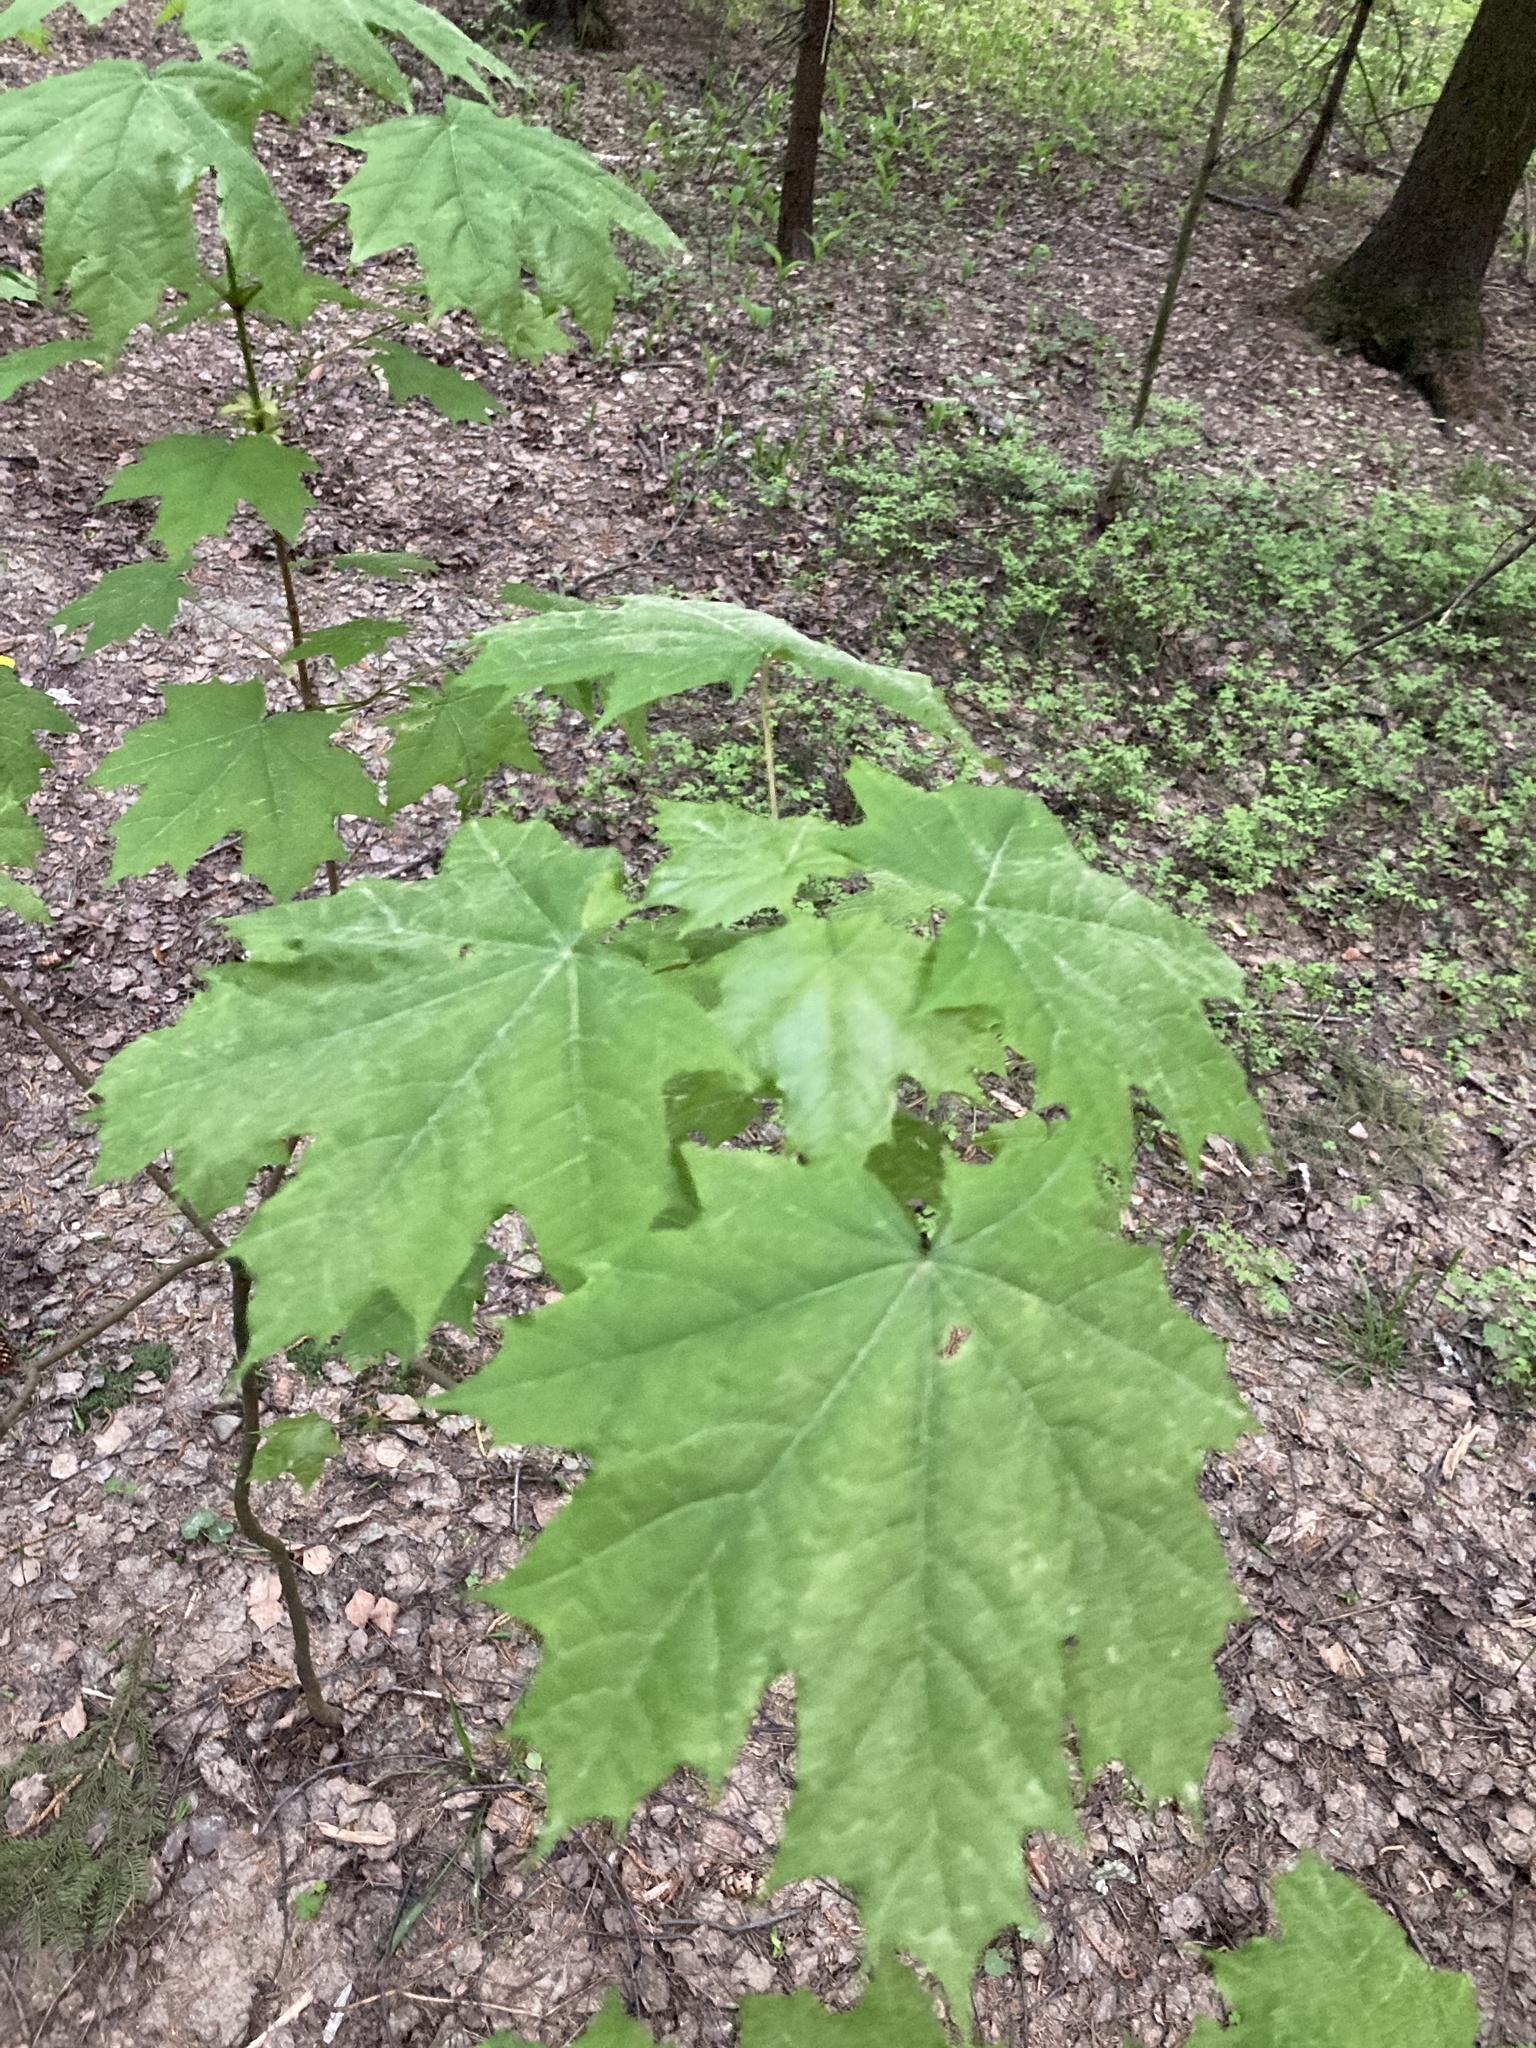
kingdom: Plantae
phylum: Tracheophyta
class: Magnoliopsida
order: Sapindales
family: Sapindaceae
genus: Acer
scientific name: Acer platanoides
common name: Norway maple
